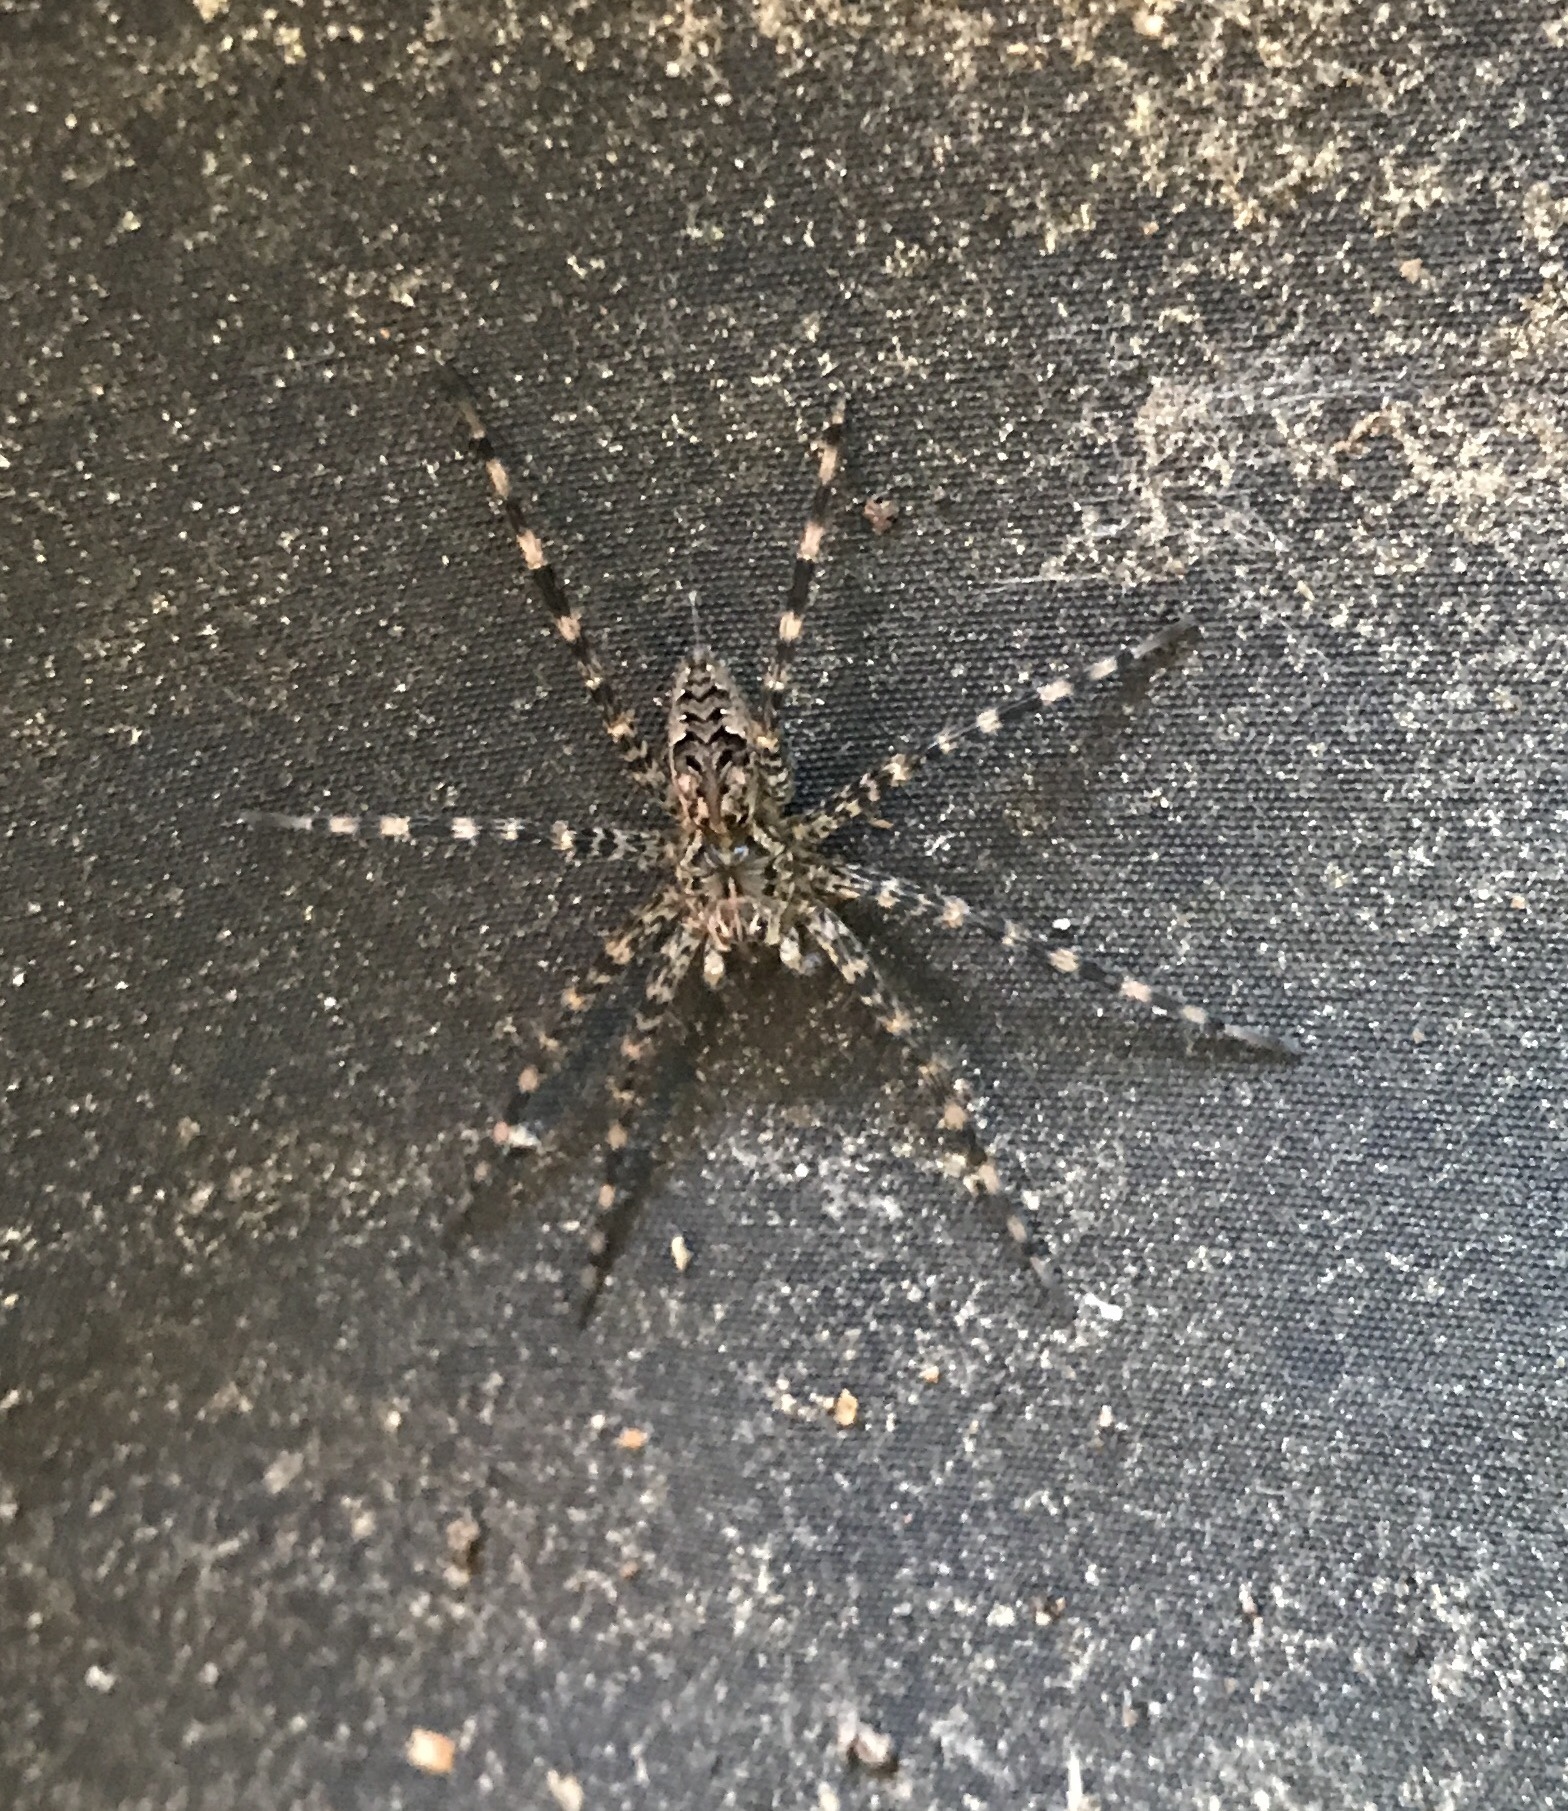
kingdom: Animalia
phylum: Arthropoda
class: Arachnida
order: Araneae
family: Pisauridae
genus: Dolomedes
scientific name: Dolomedes tenebrosus
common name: Dark fishing spider
